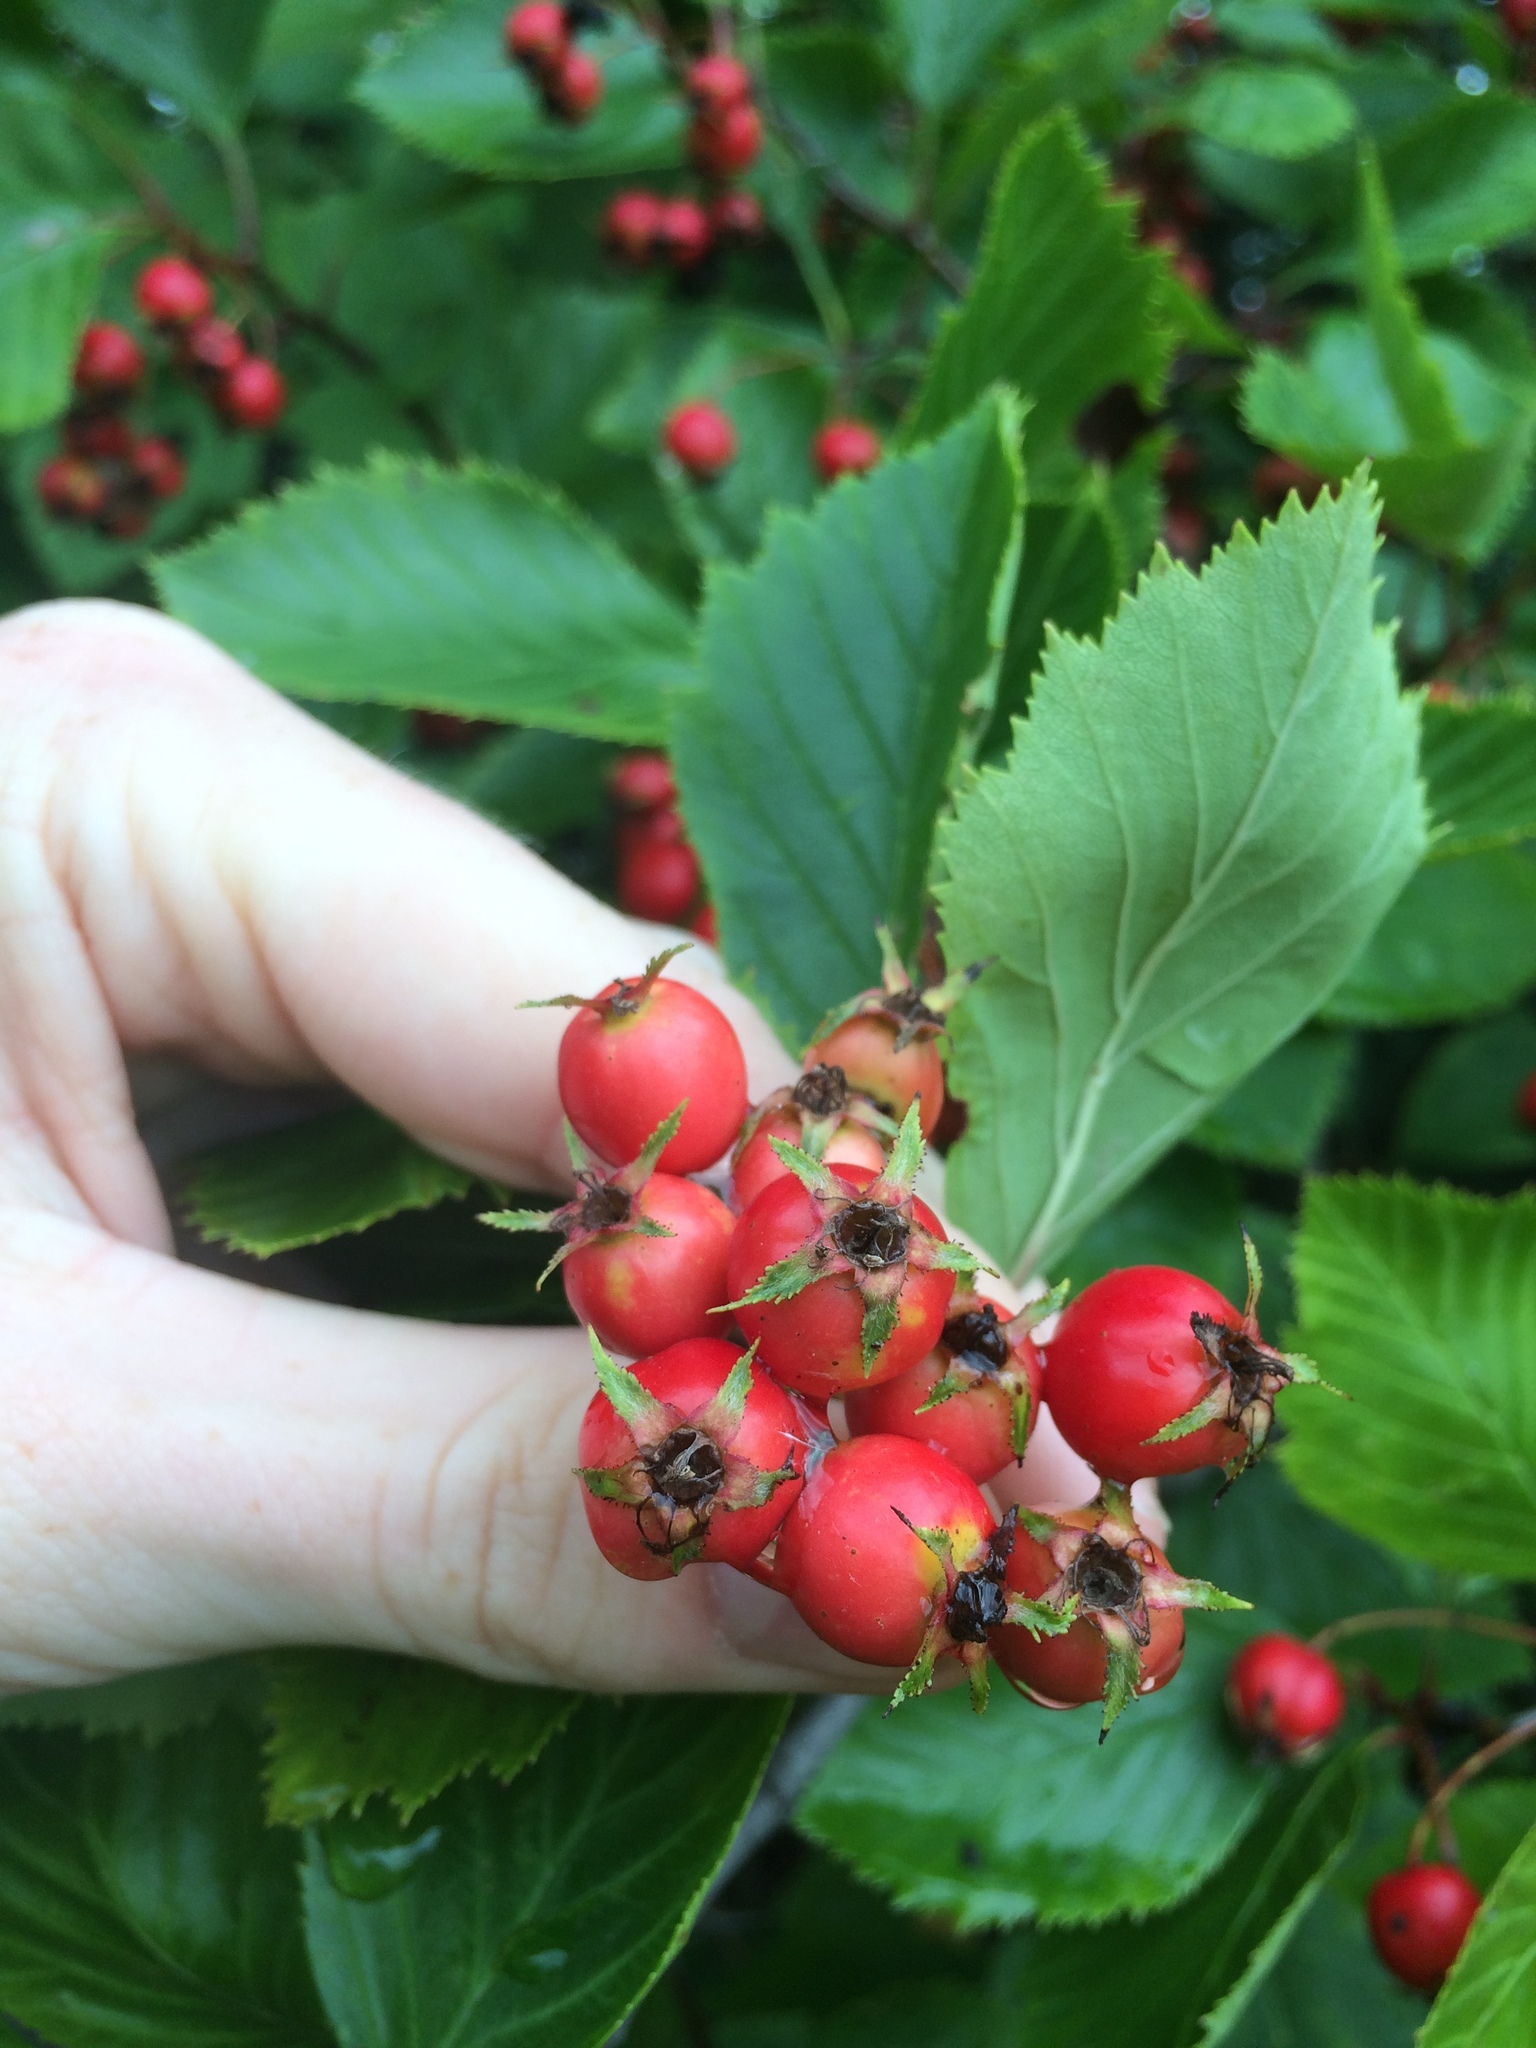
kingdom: Plantae
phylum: Tracheophyta
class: Magnoliopsida
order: Rosales
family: Rosaceae
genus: Crataegus
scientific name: Crataegus macracantha
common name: Large-thorn hawthorn
